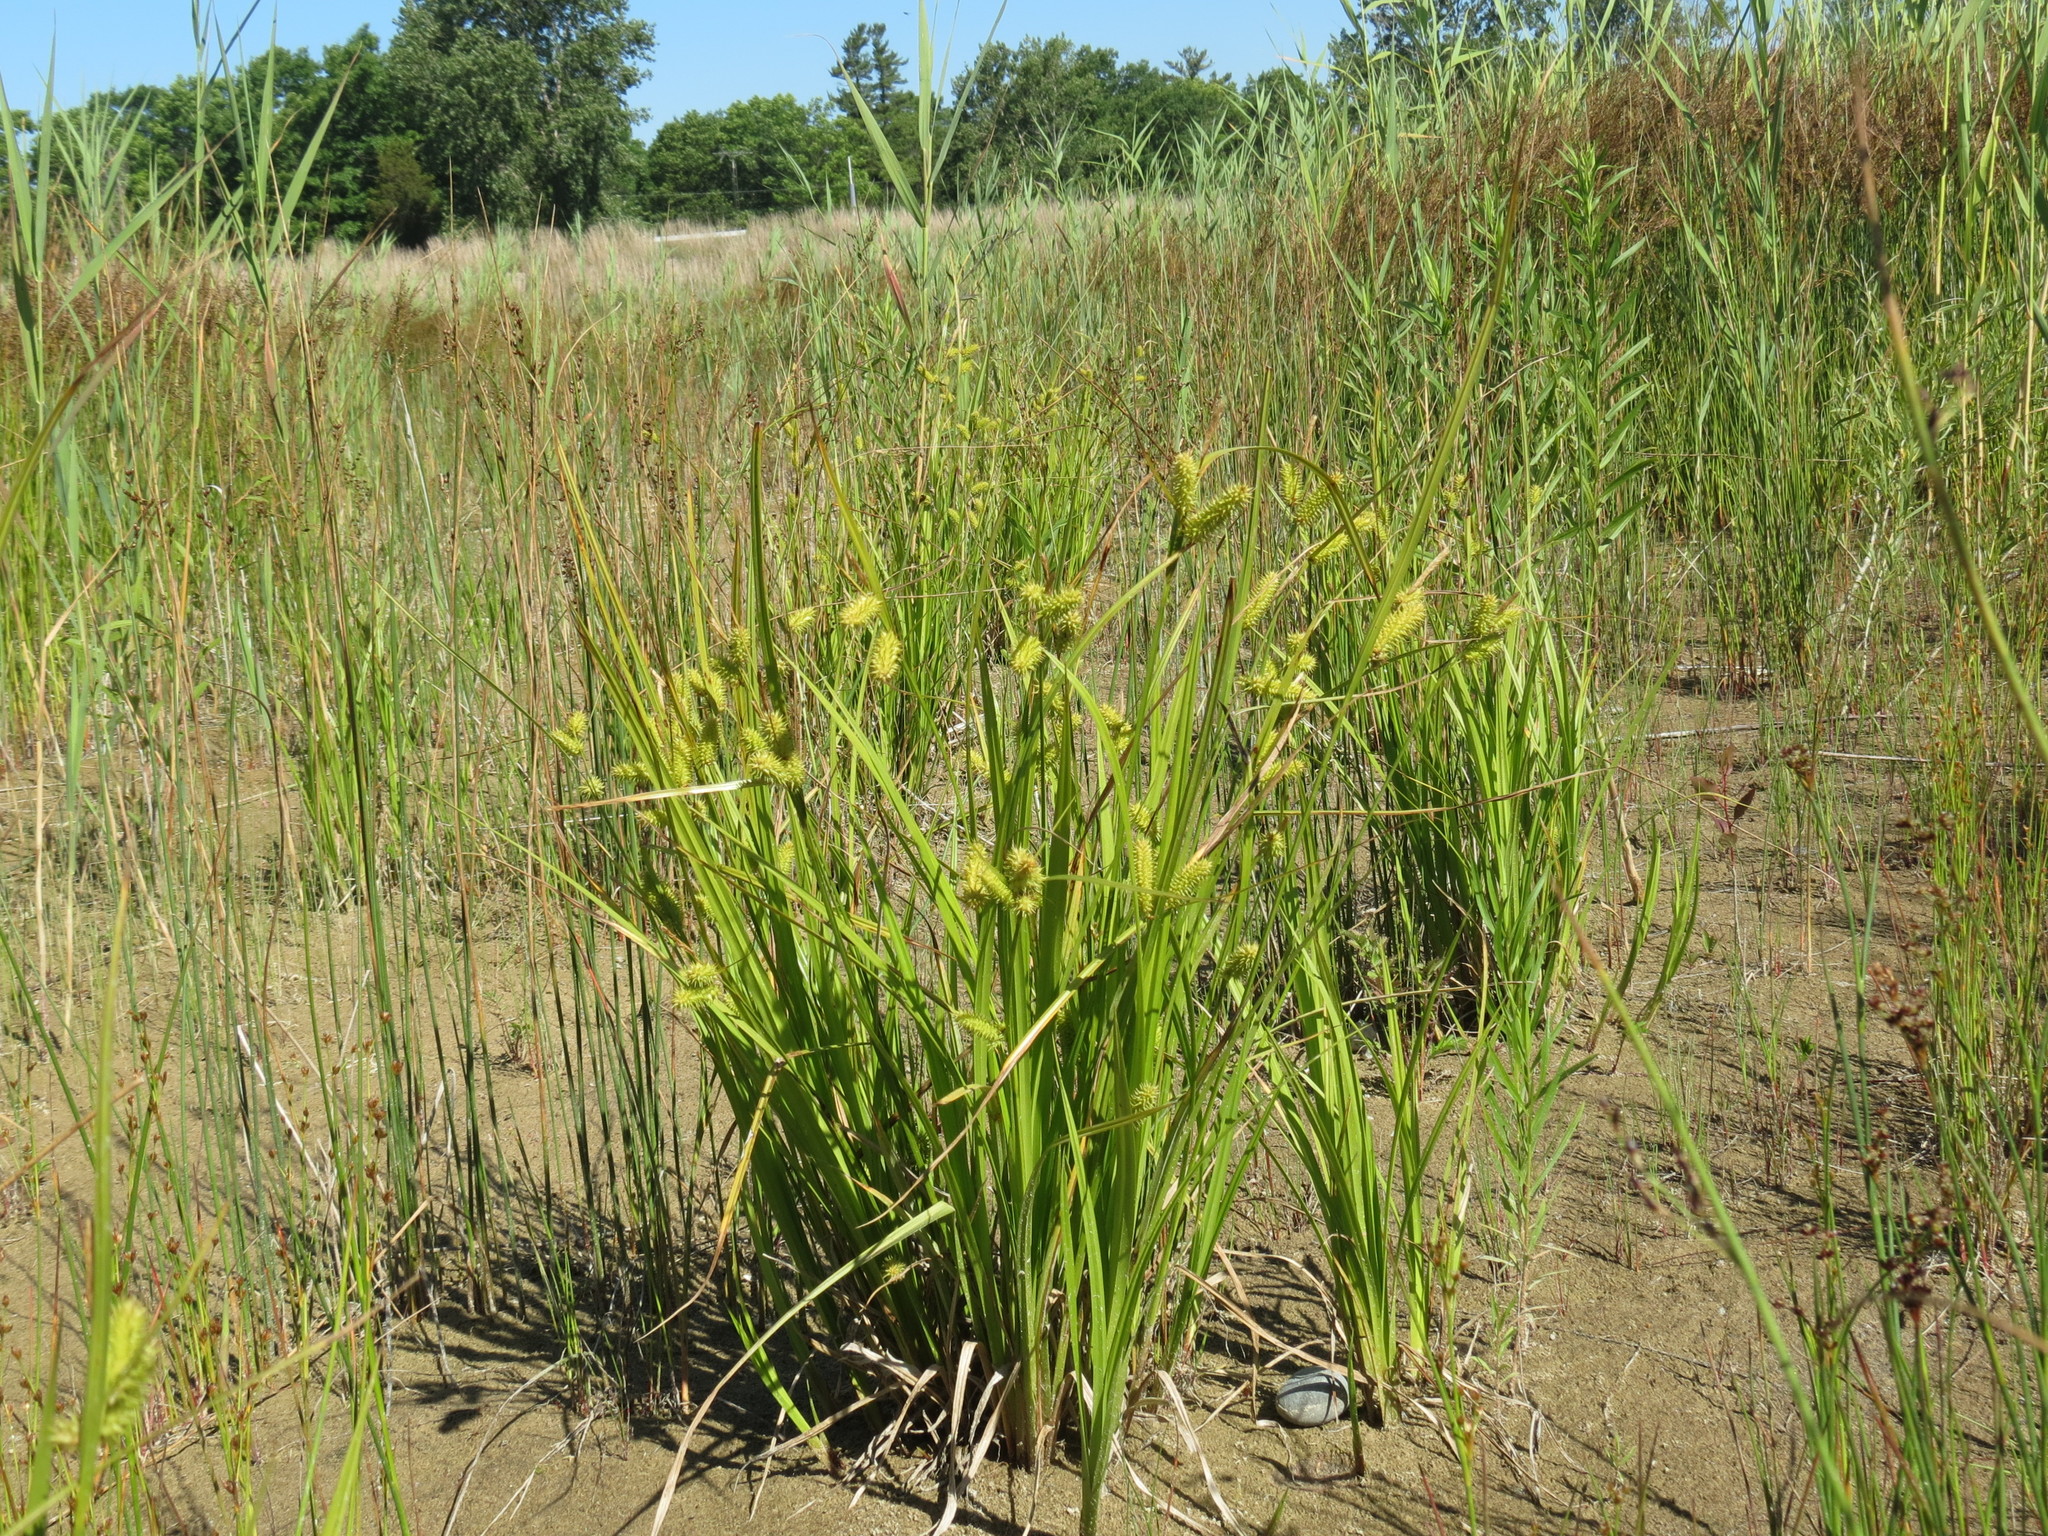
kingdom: Plantae
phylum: Tracheophyta
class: Liliopsida
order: Poales
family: Cyperaceae
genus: Carex
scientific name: Carex hystericina
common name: Bottlebrush sedge
